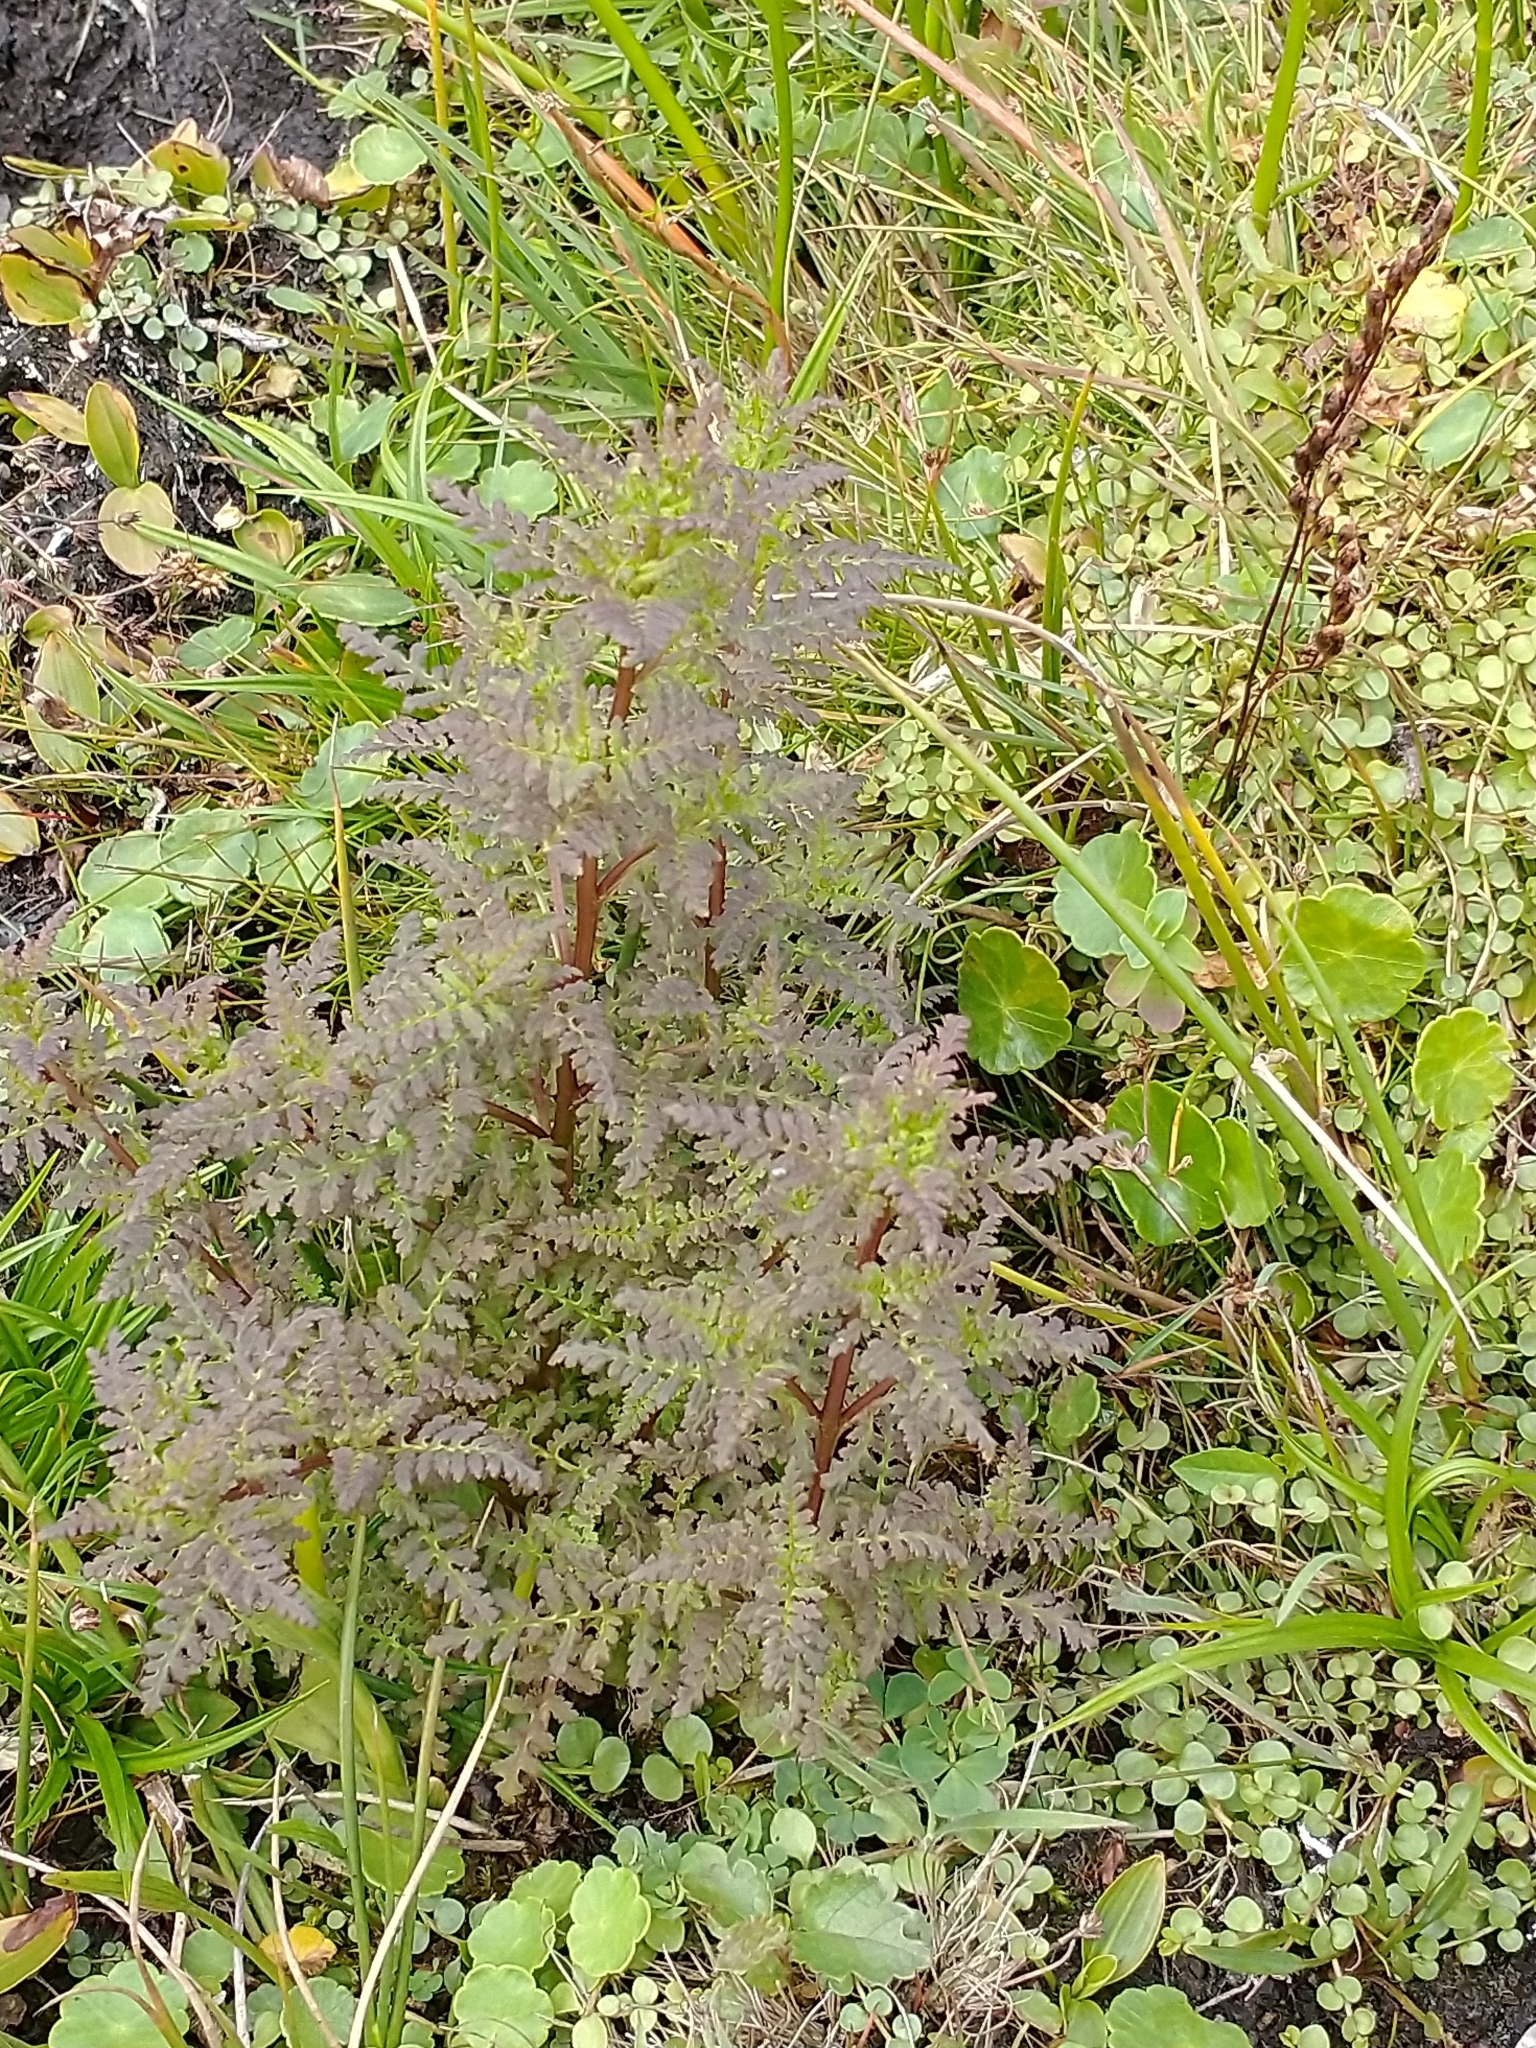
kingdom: Plantae
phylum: Tracheophyta
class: Magnoliopsida
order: Lamiales
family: Orobanchaceae
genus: Pedicularis
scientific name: Pedicularis palustris
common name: Marsh lousewort
